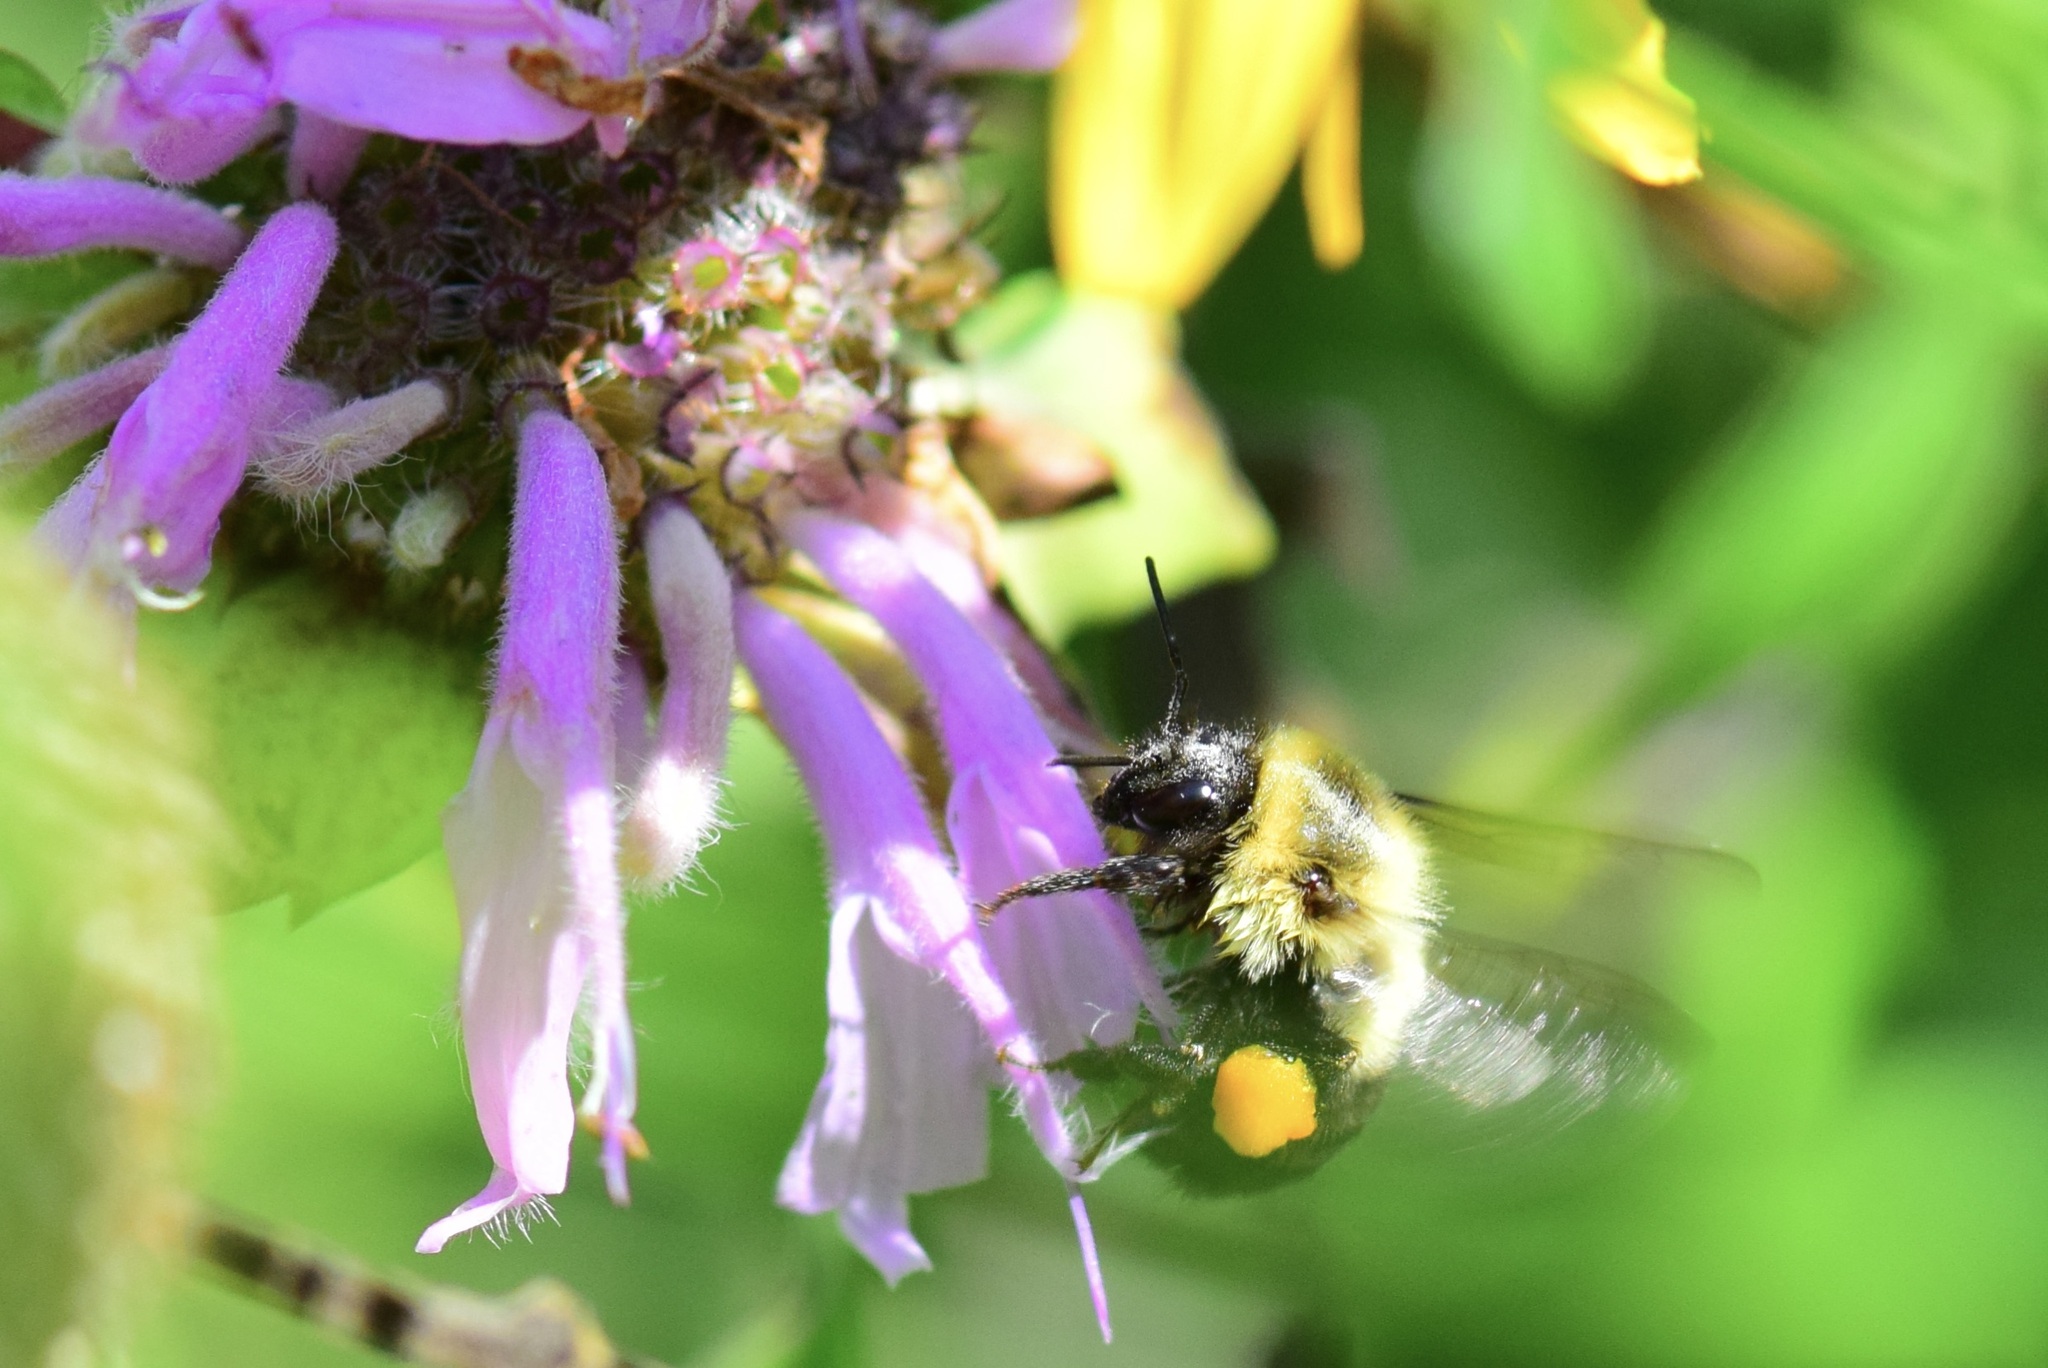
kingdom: Animalia
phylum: Arthropoda
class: Insecta
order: Hymenoptera
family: Apidae
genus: Bombus
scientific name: Bombus impatiens
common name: Common eastern bumble bee
